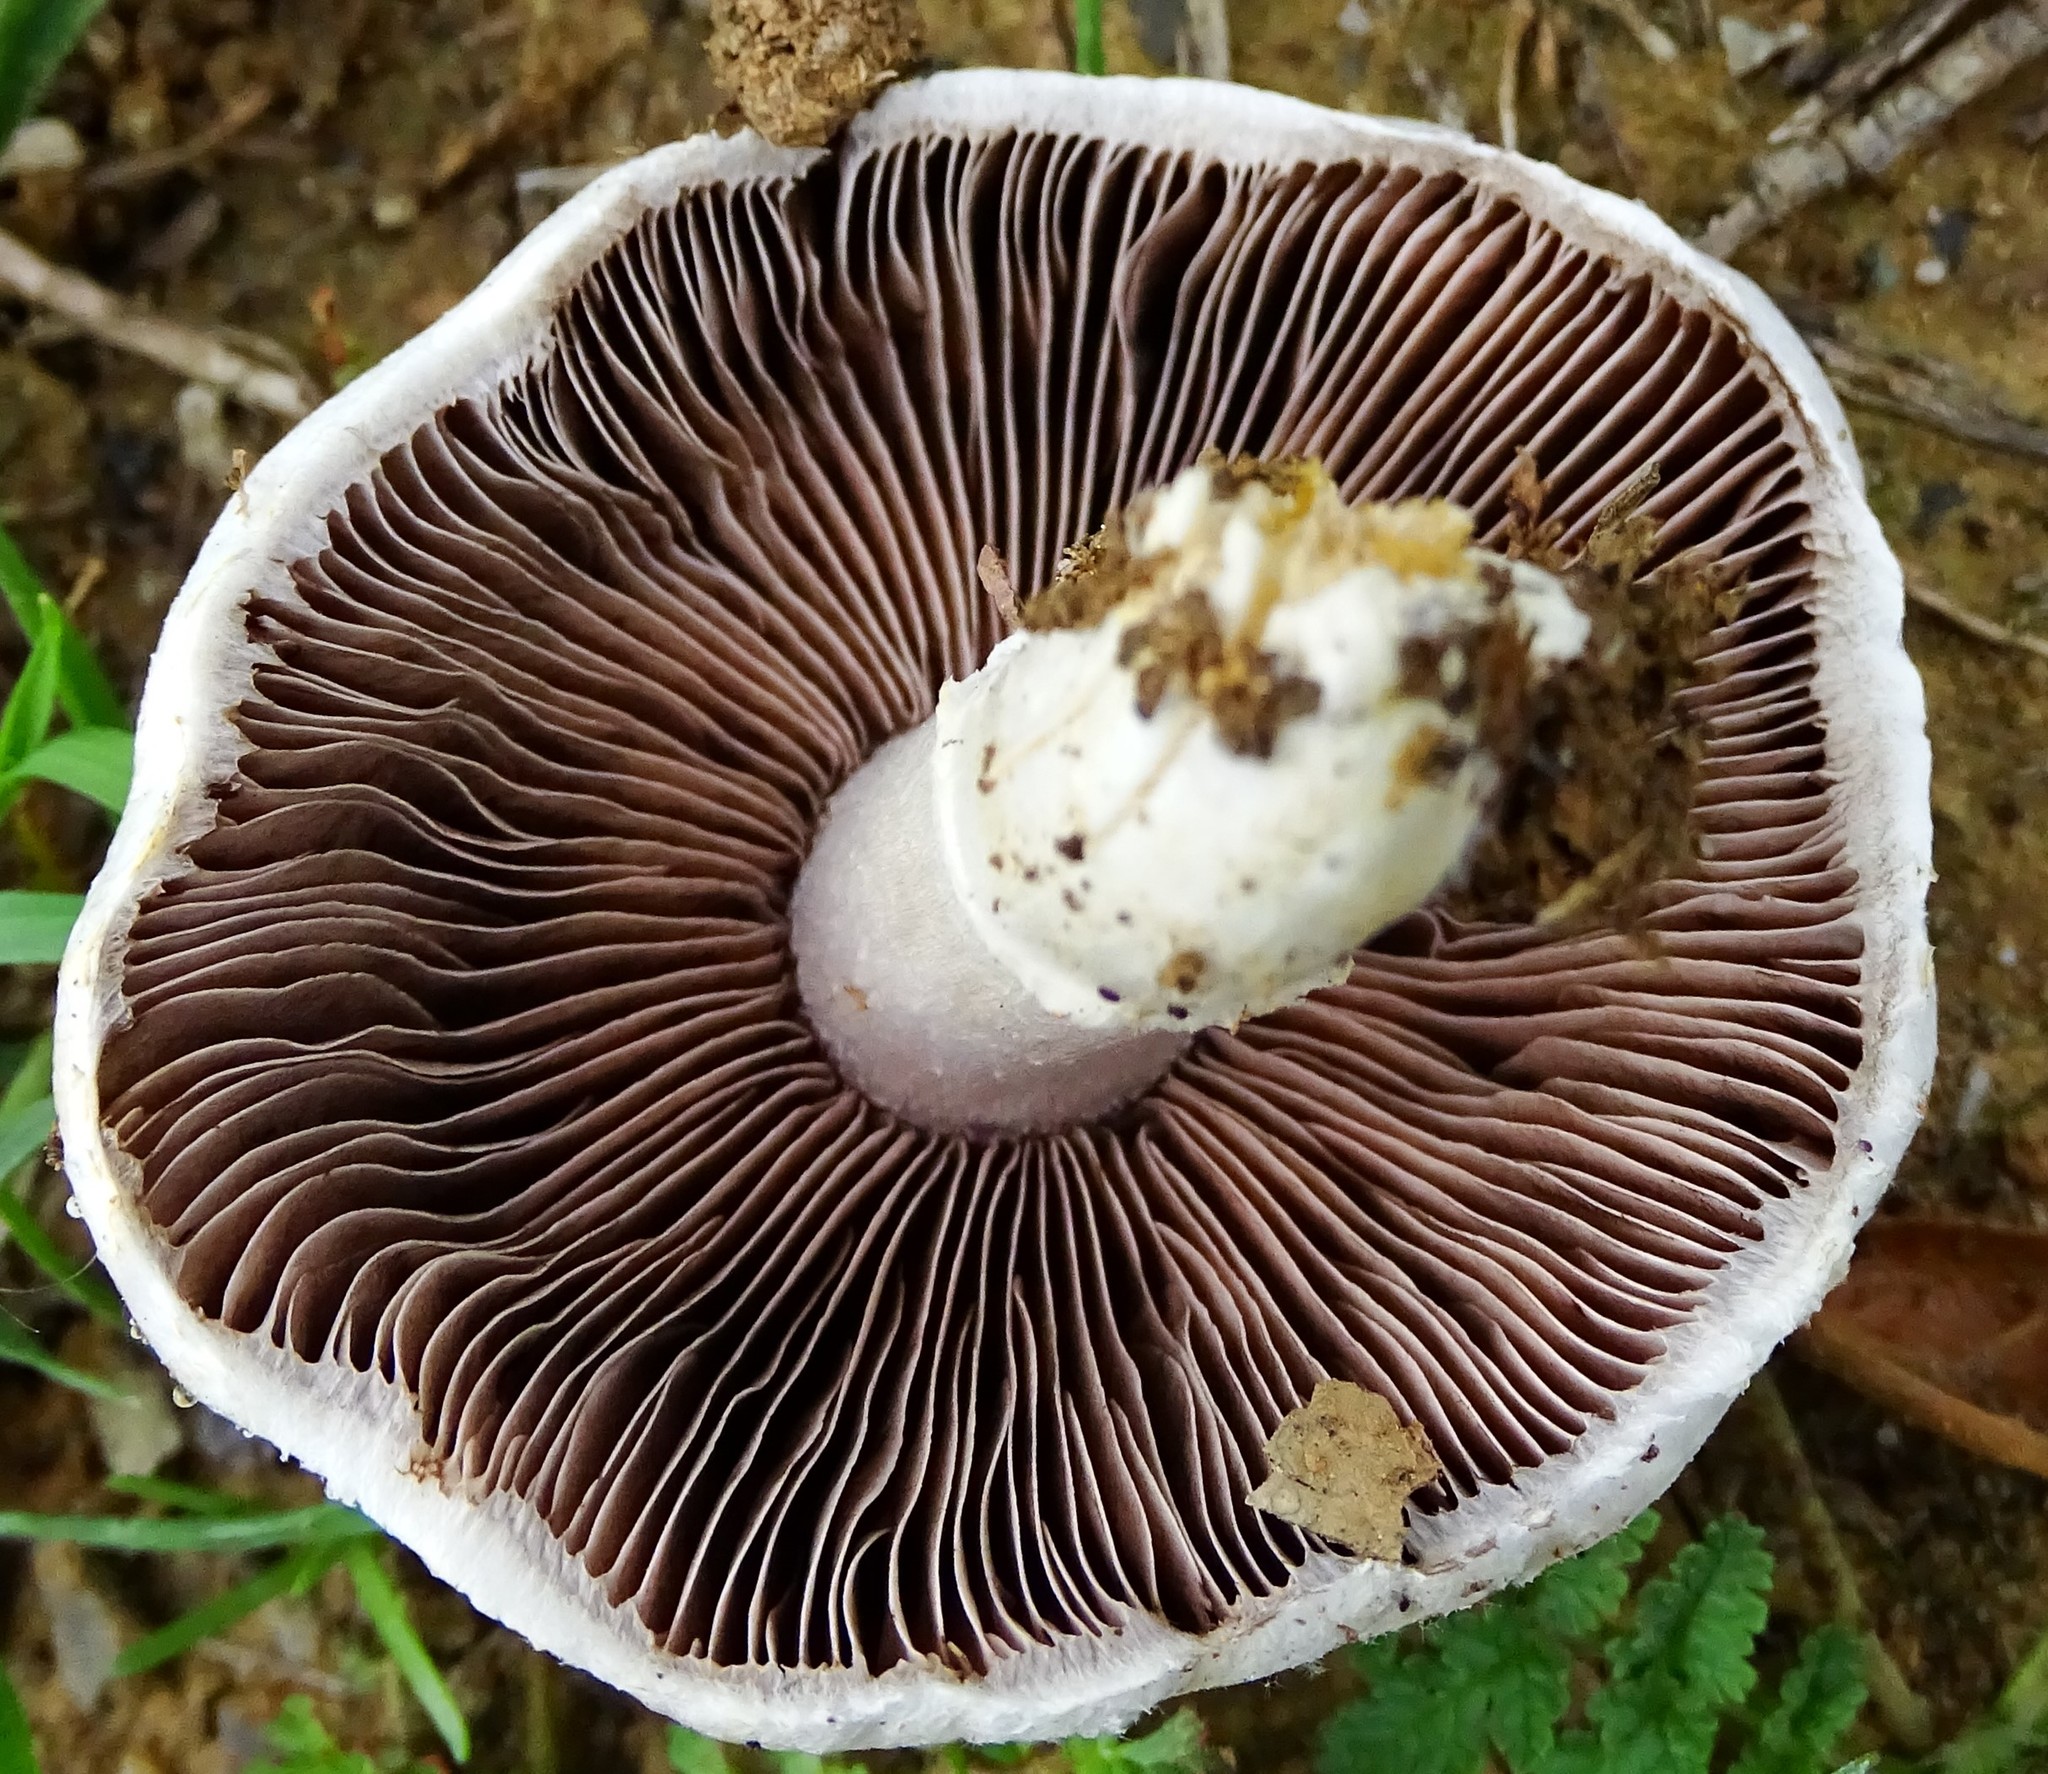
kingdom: Fungi
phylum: Basidiomycota
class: Agaricomycetes
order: Agaricales
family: Agaricaceae
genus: Agaricus
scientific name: Agaricus
